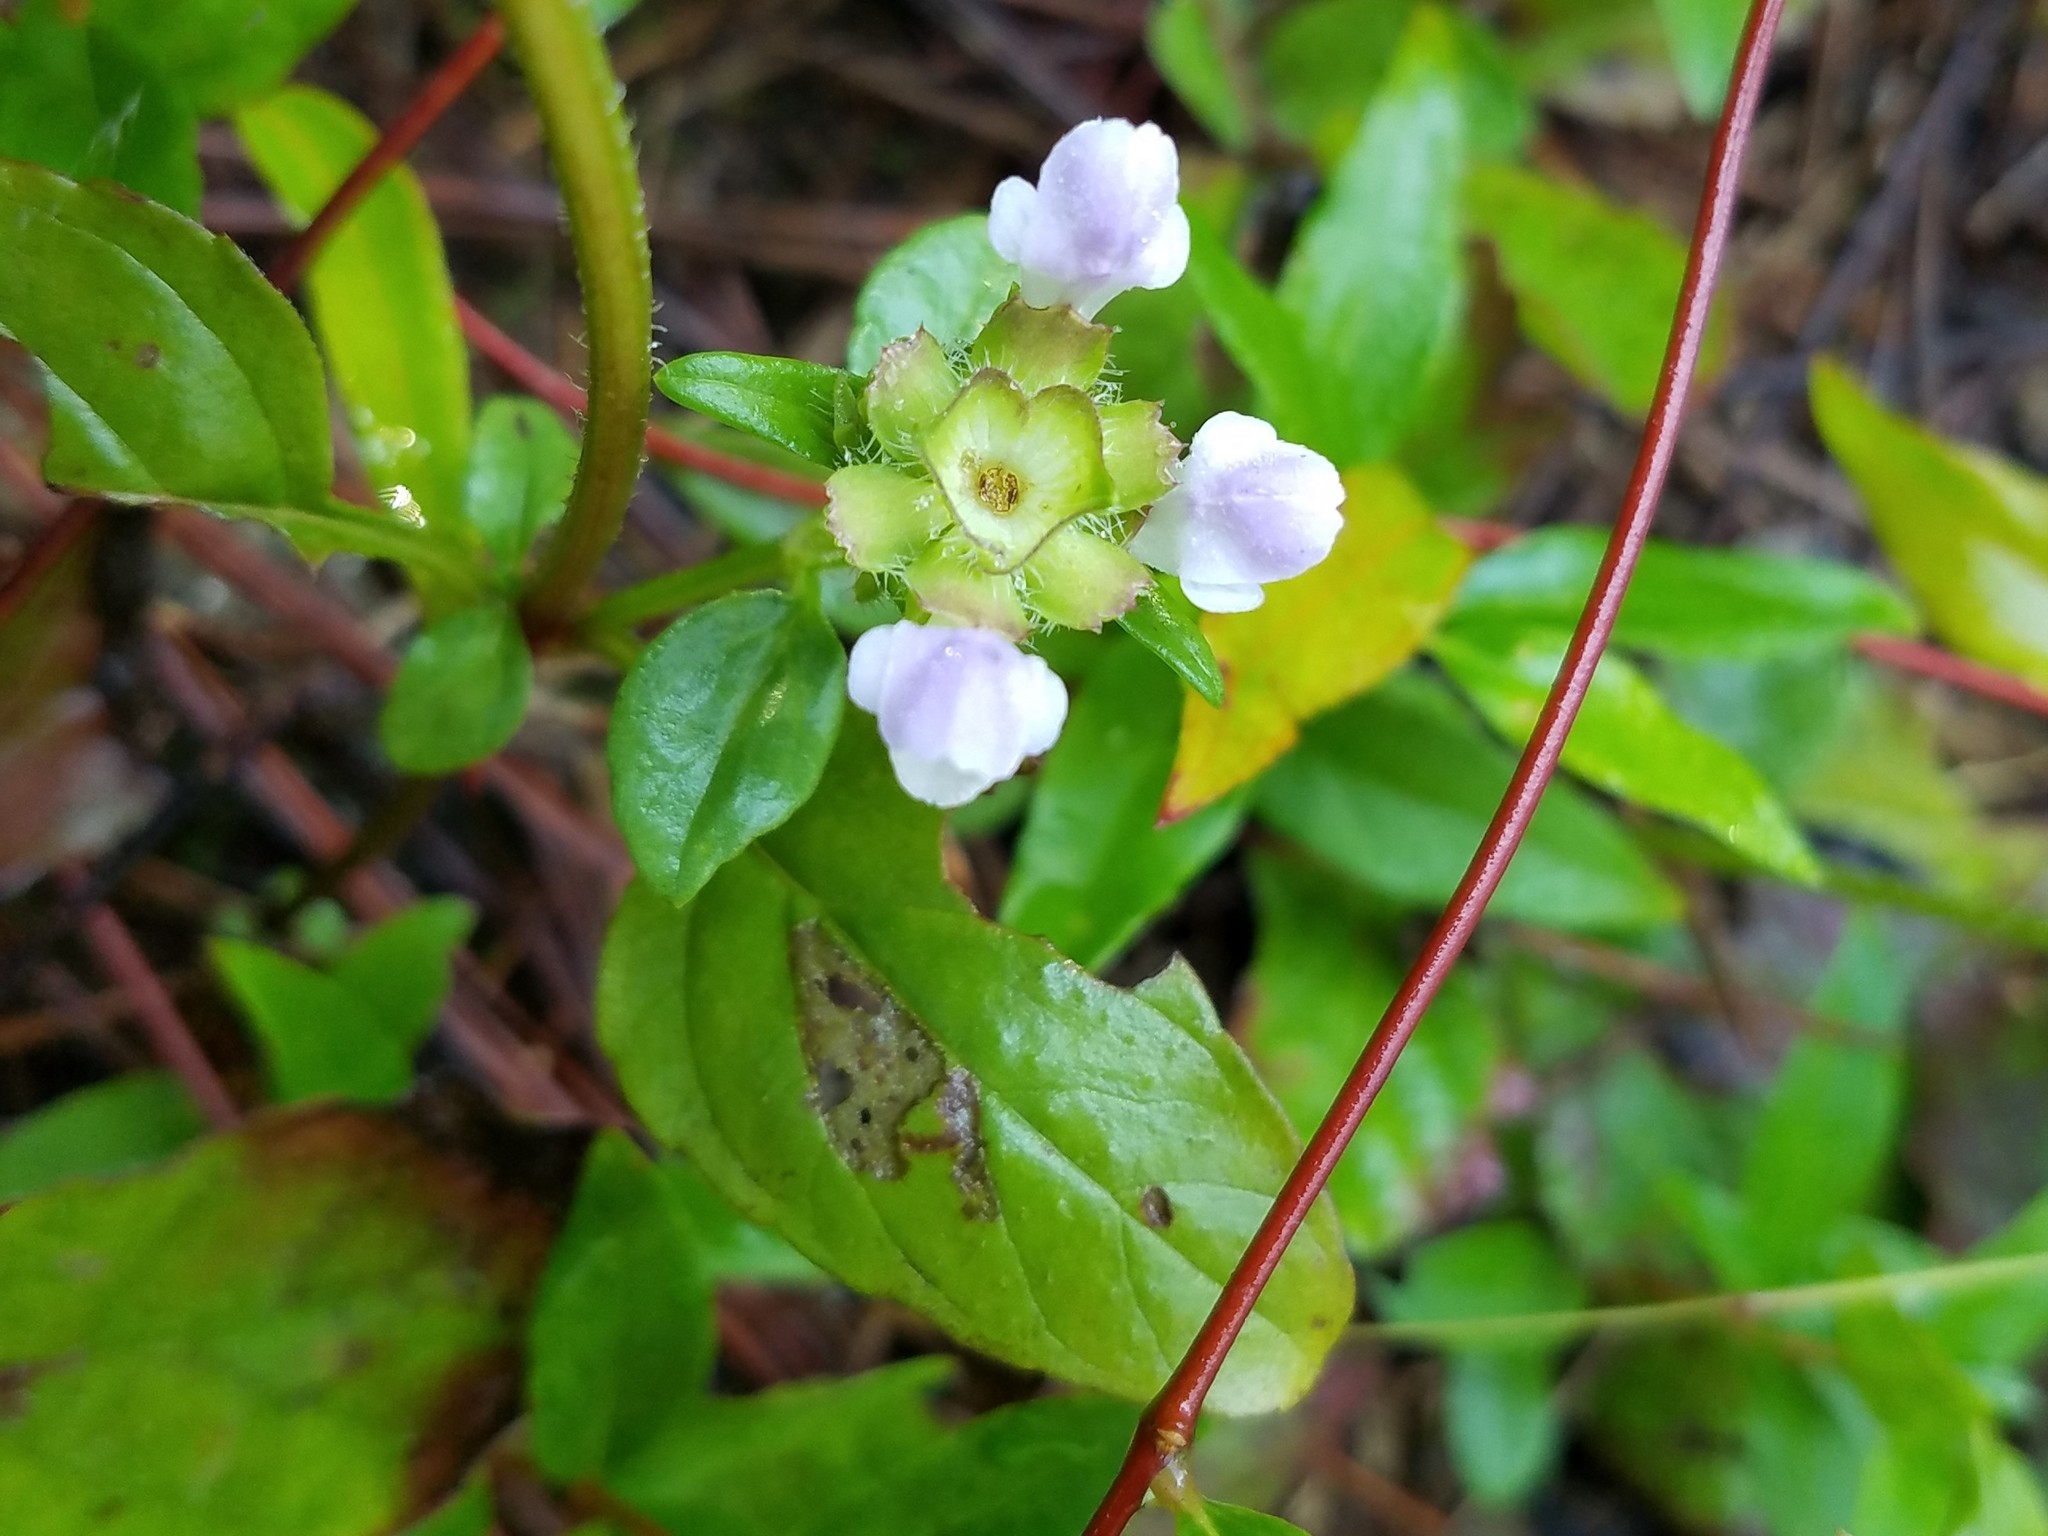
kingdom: Plantae
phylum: Tracheophyta
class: Magnoliopsida
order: Lamiales
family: Lamiaceae
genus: Prunella
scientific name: Prunella vulgaris
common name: Heal-all
